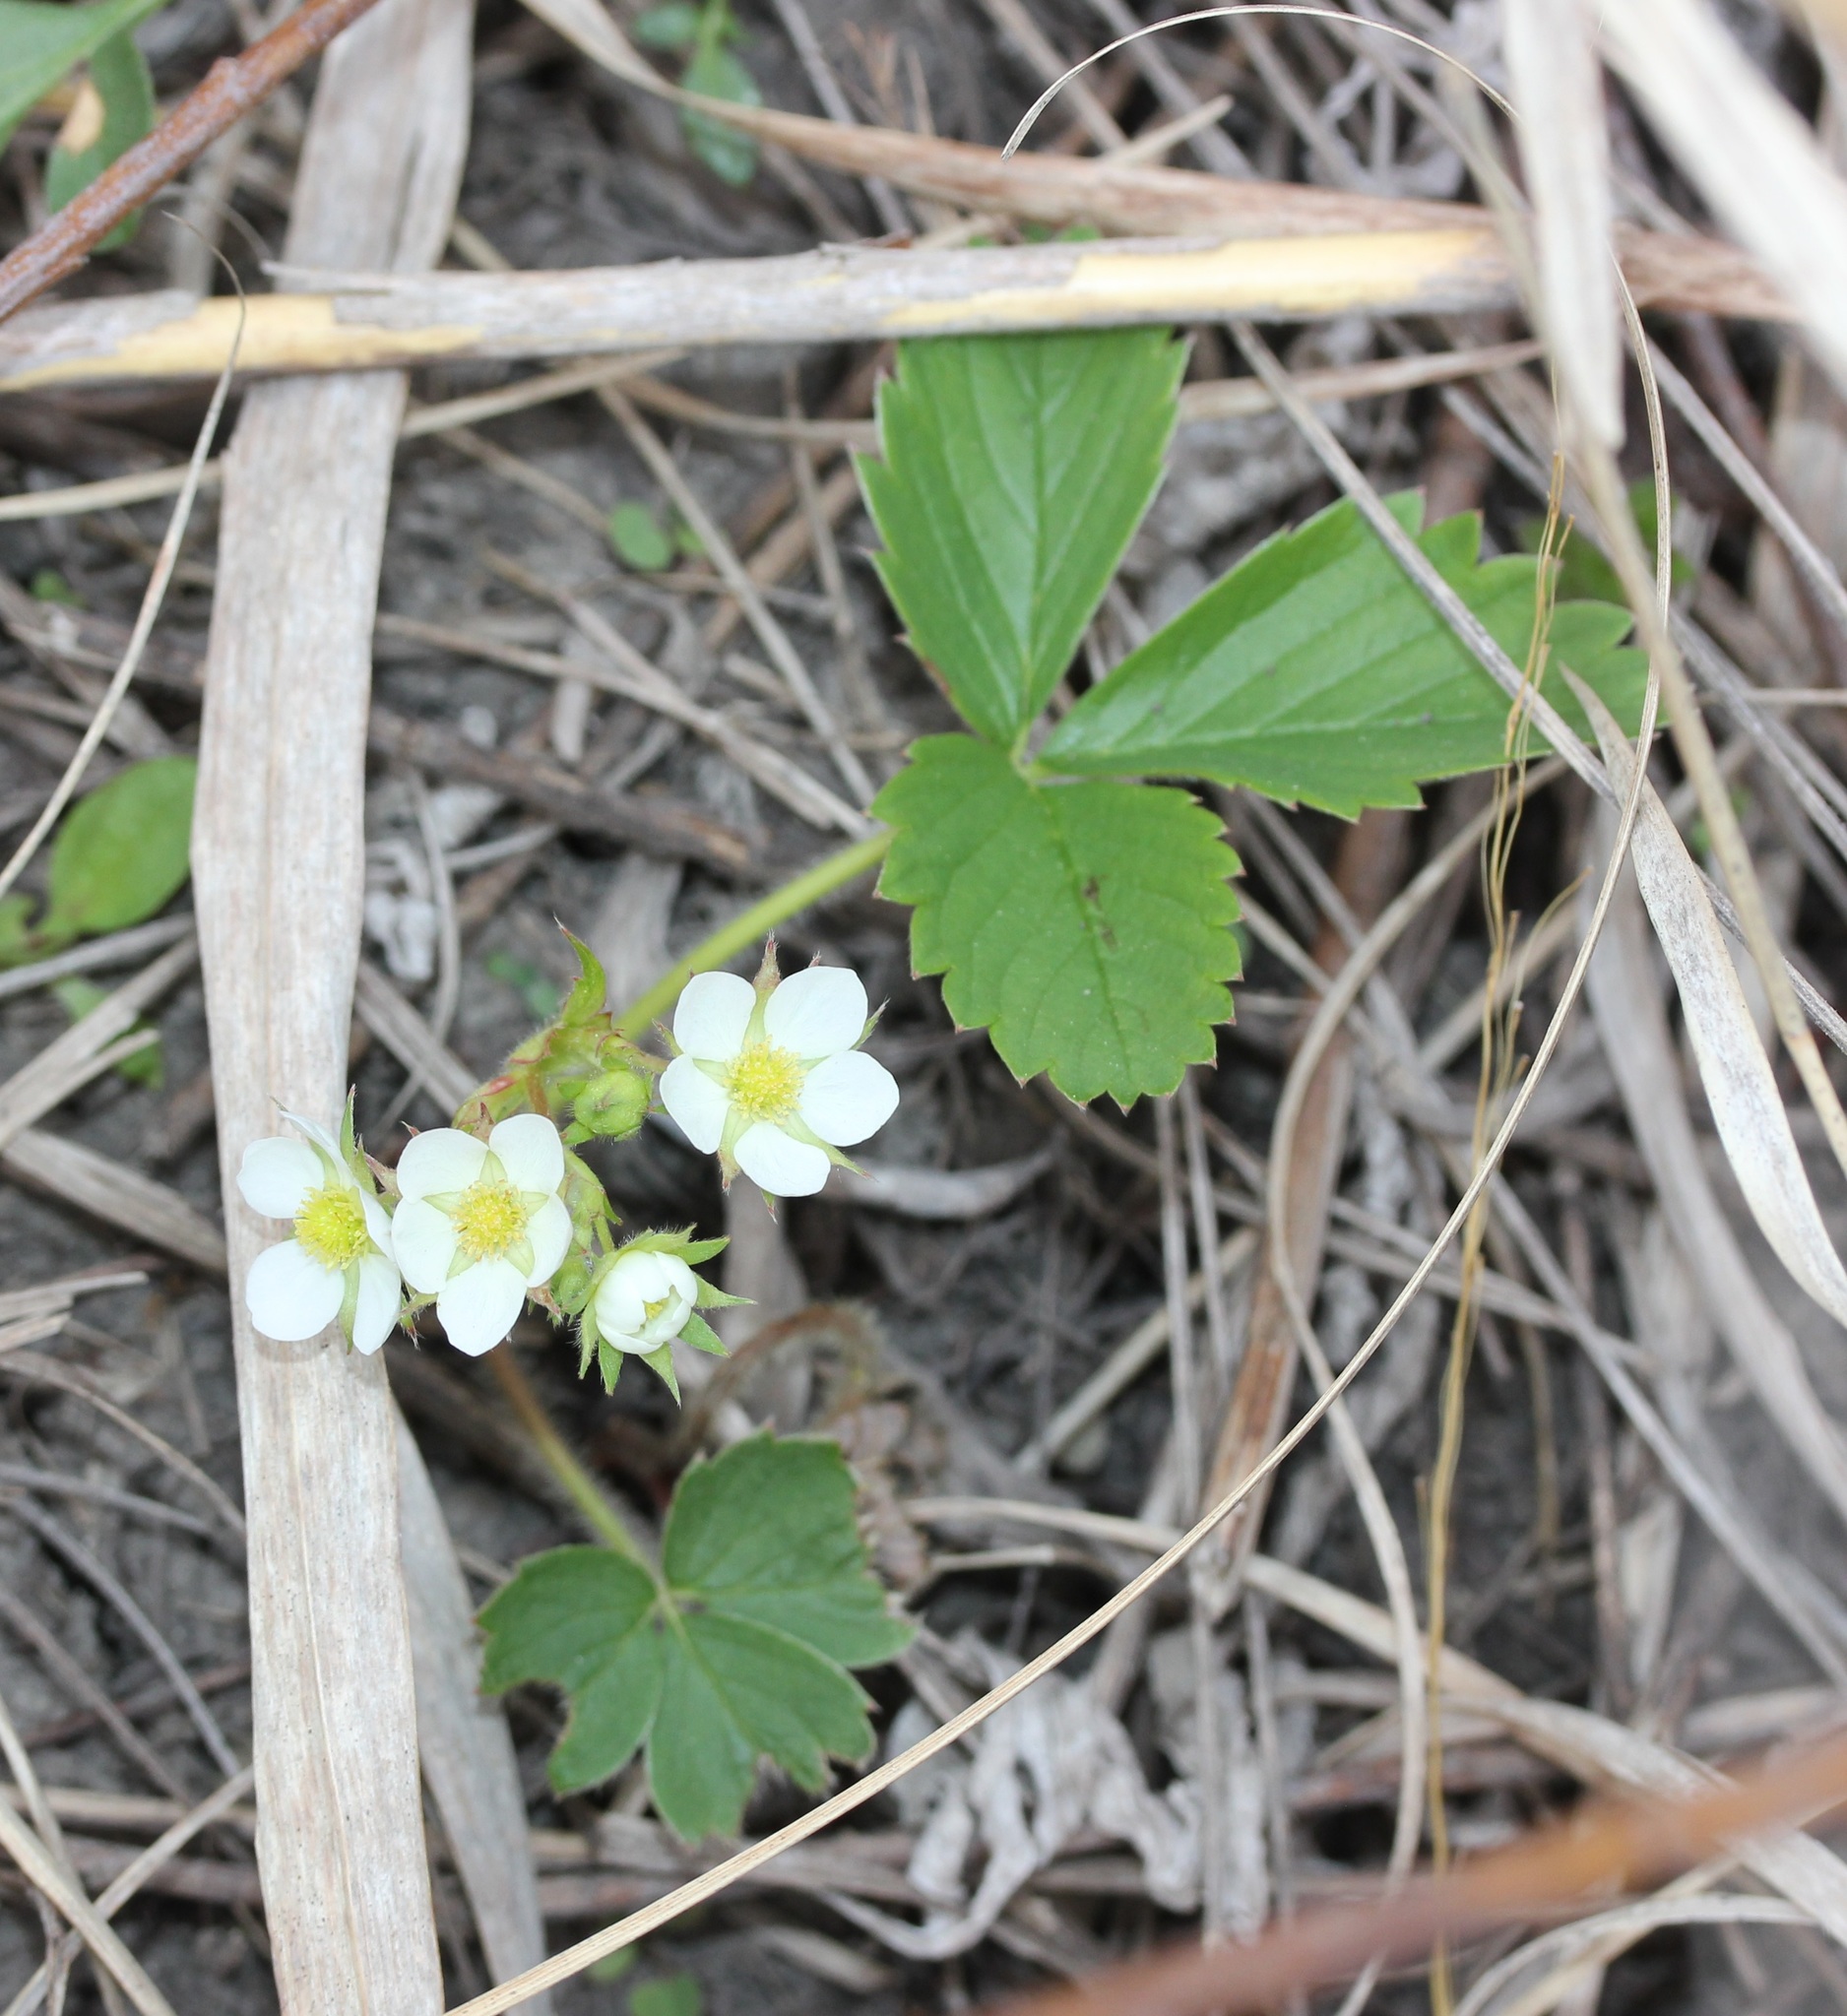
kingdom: Plantae
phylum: Tracheophyta
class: Magnoliopsida
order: Rosales
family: Rosaceae
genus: Fragaria
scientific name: Fragaria virginiana
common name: Thickleaved wild strawberry
